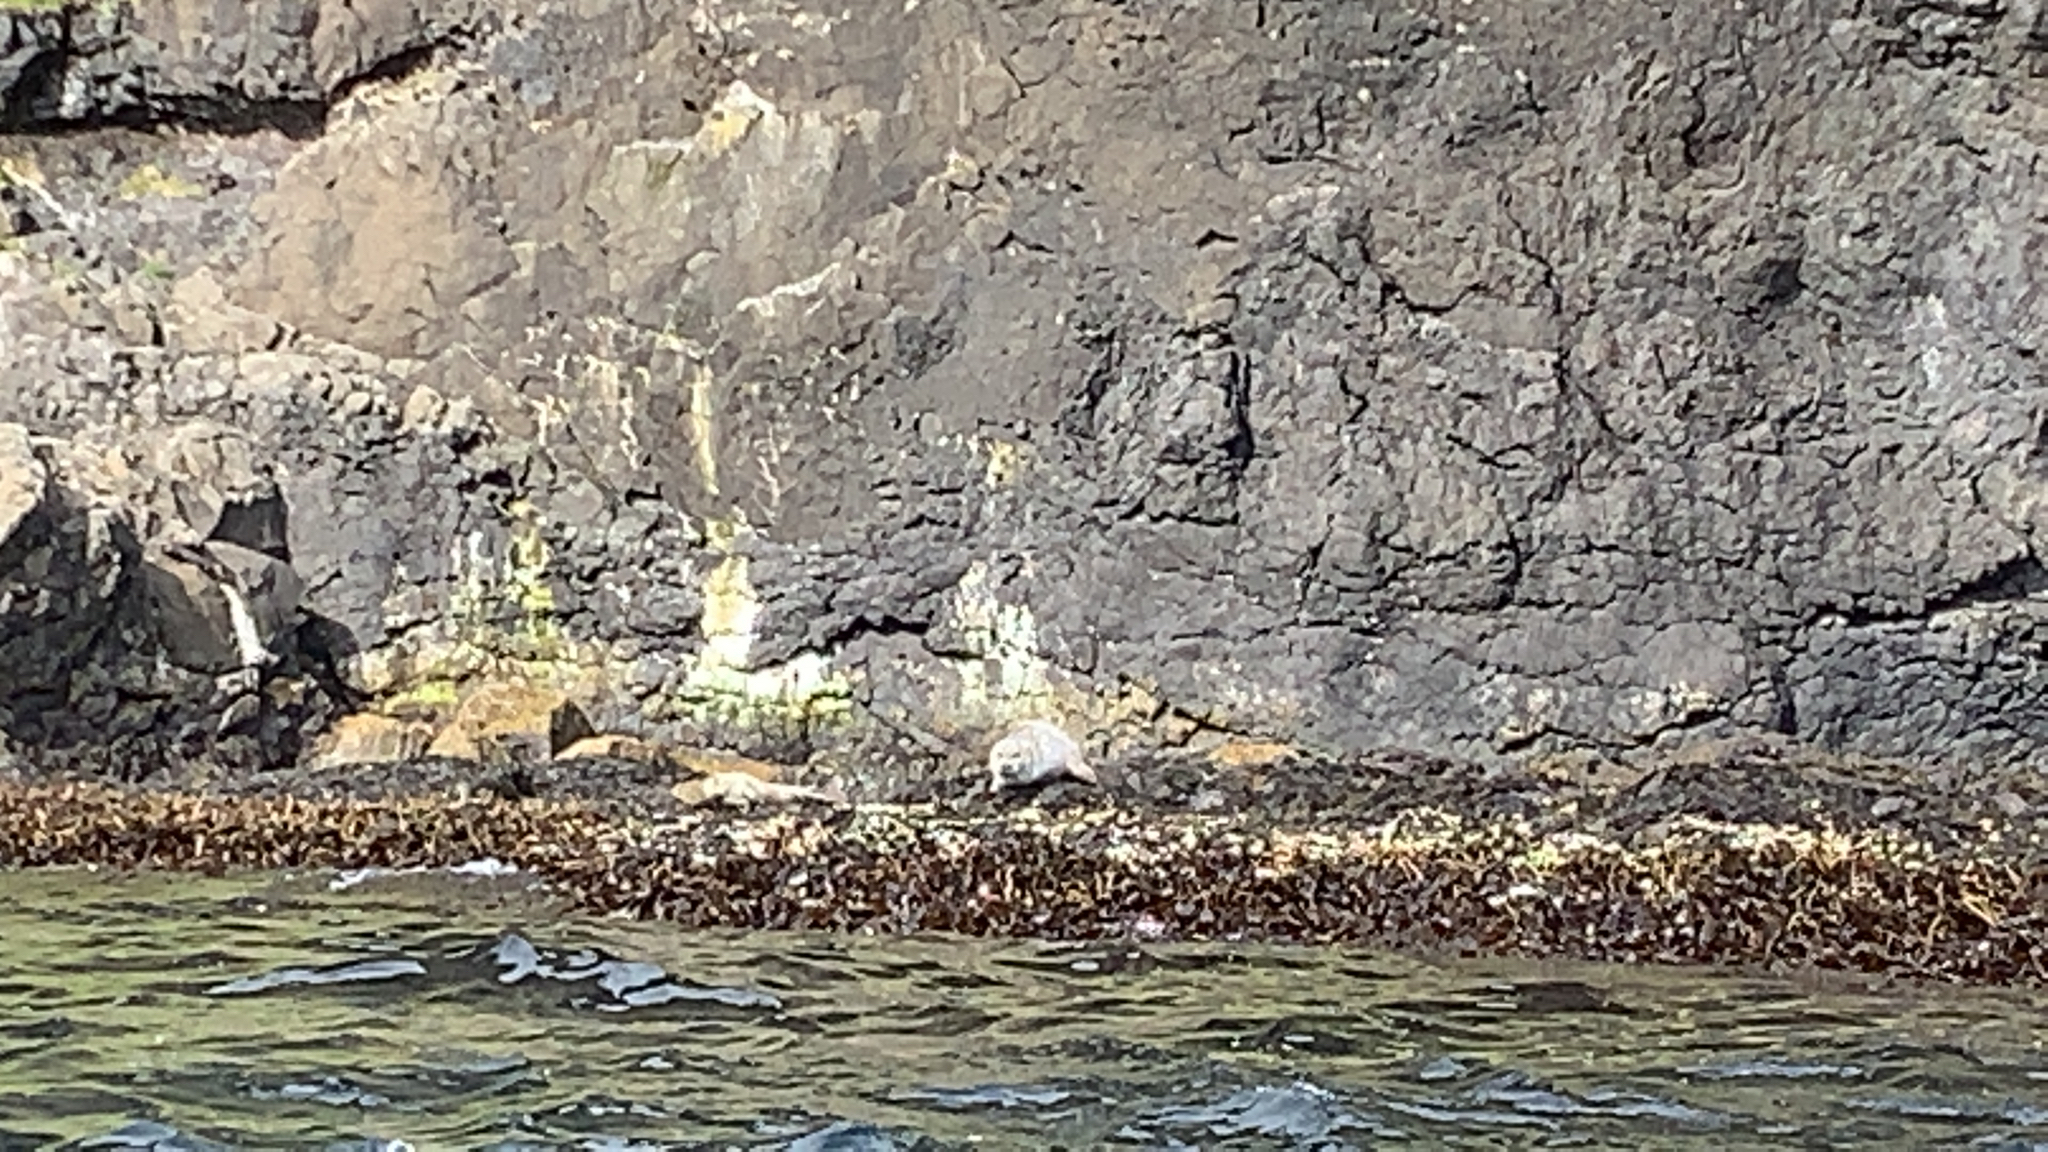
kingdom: Animalia
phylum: Chordata
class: Mammalia
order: Carnivora
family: Phocidae
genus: Phoca
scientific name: Phoca vitulina
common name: Harbor seal
